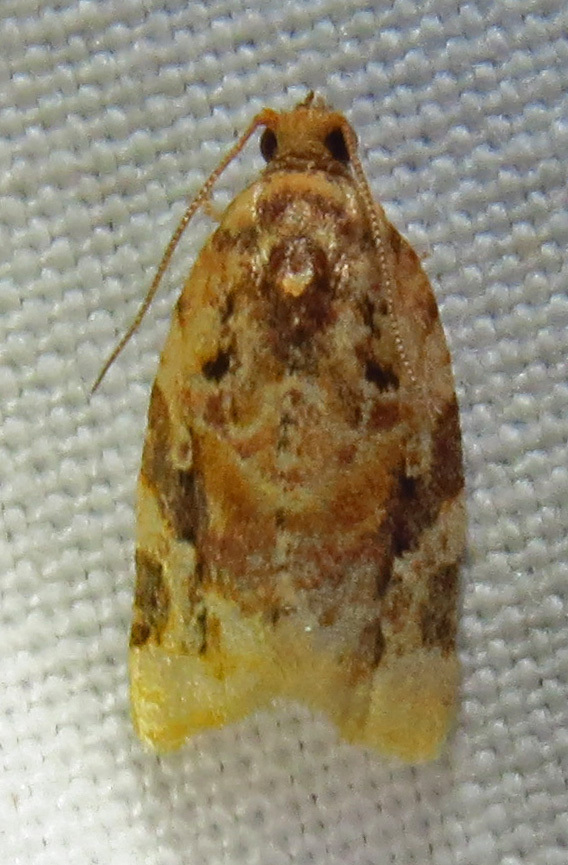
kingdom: Animalia
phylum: Arthropoda
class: Insecta
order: Lepidoptera
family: Tortricidae
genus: Argyrotaenia
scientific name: Argyrotaenia velutinana
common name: Red-banded leafroller moth
